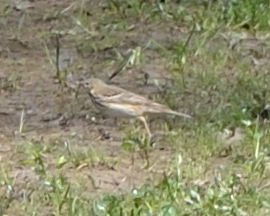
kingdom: Animalia
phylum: Chordata
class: Aves
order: Passeriformes
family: Motacillidae
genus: Anthus
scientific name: Anthus trivialis
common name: Tree pipit
